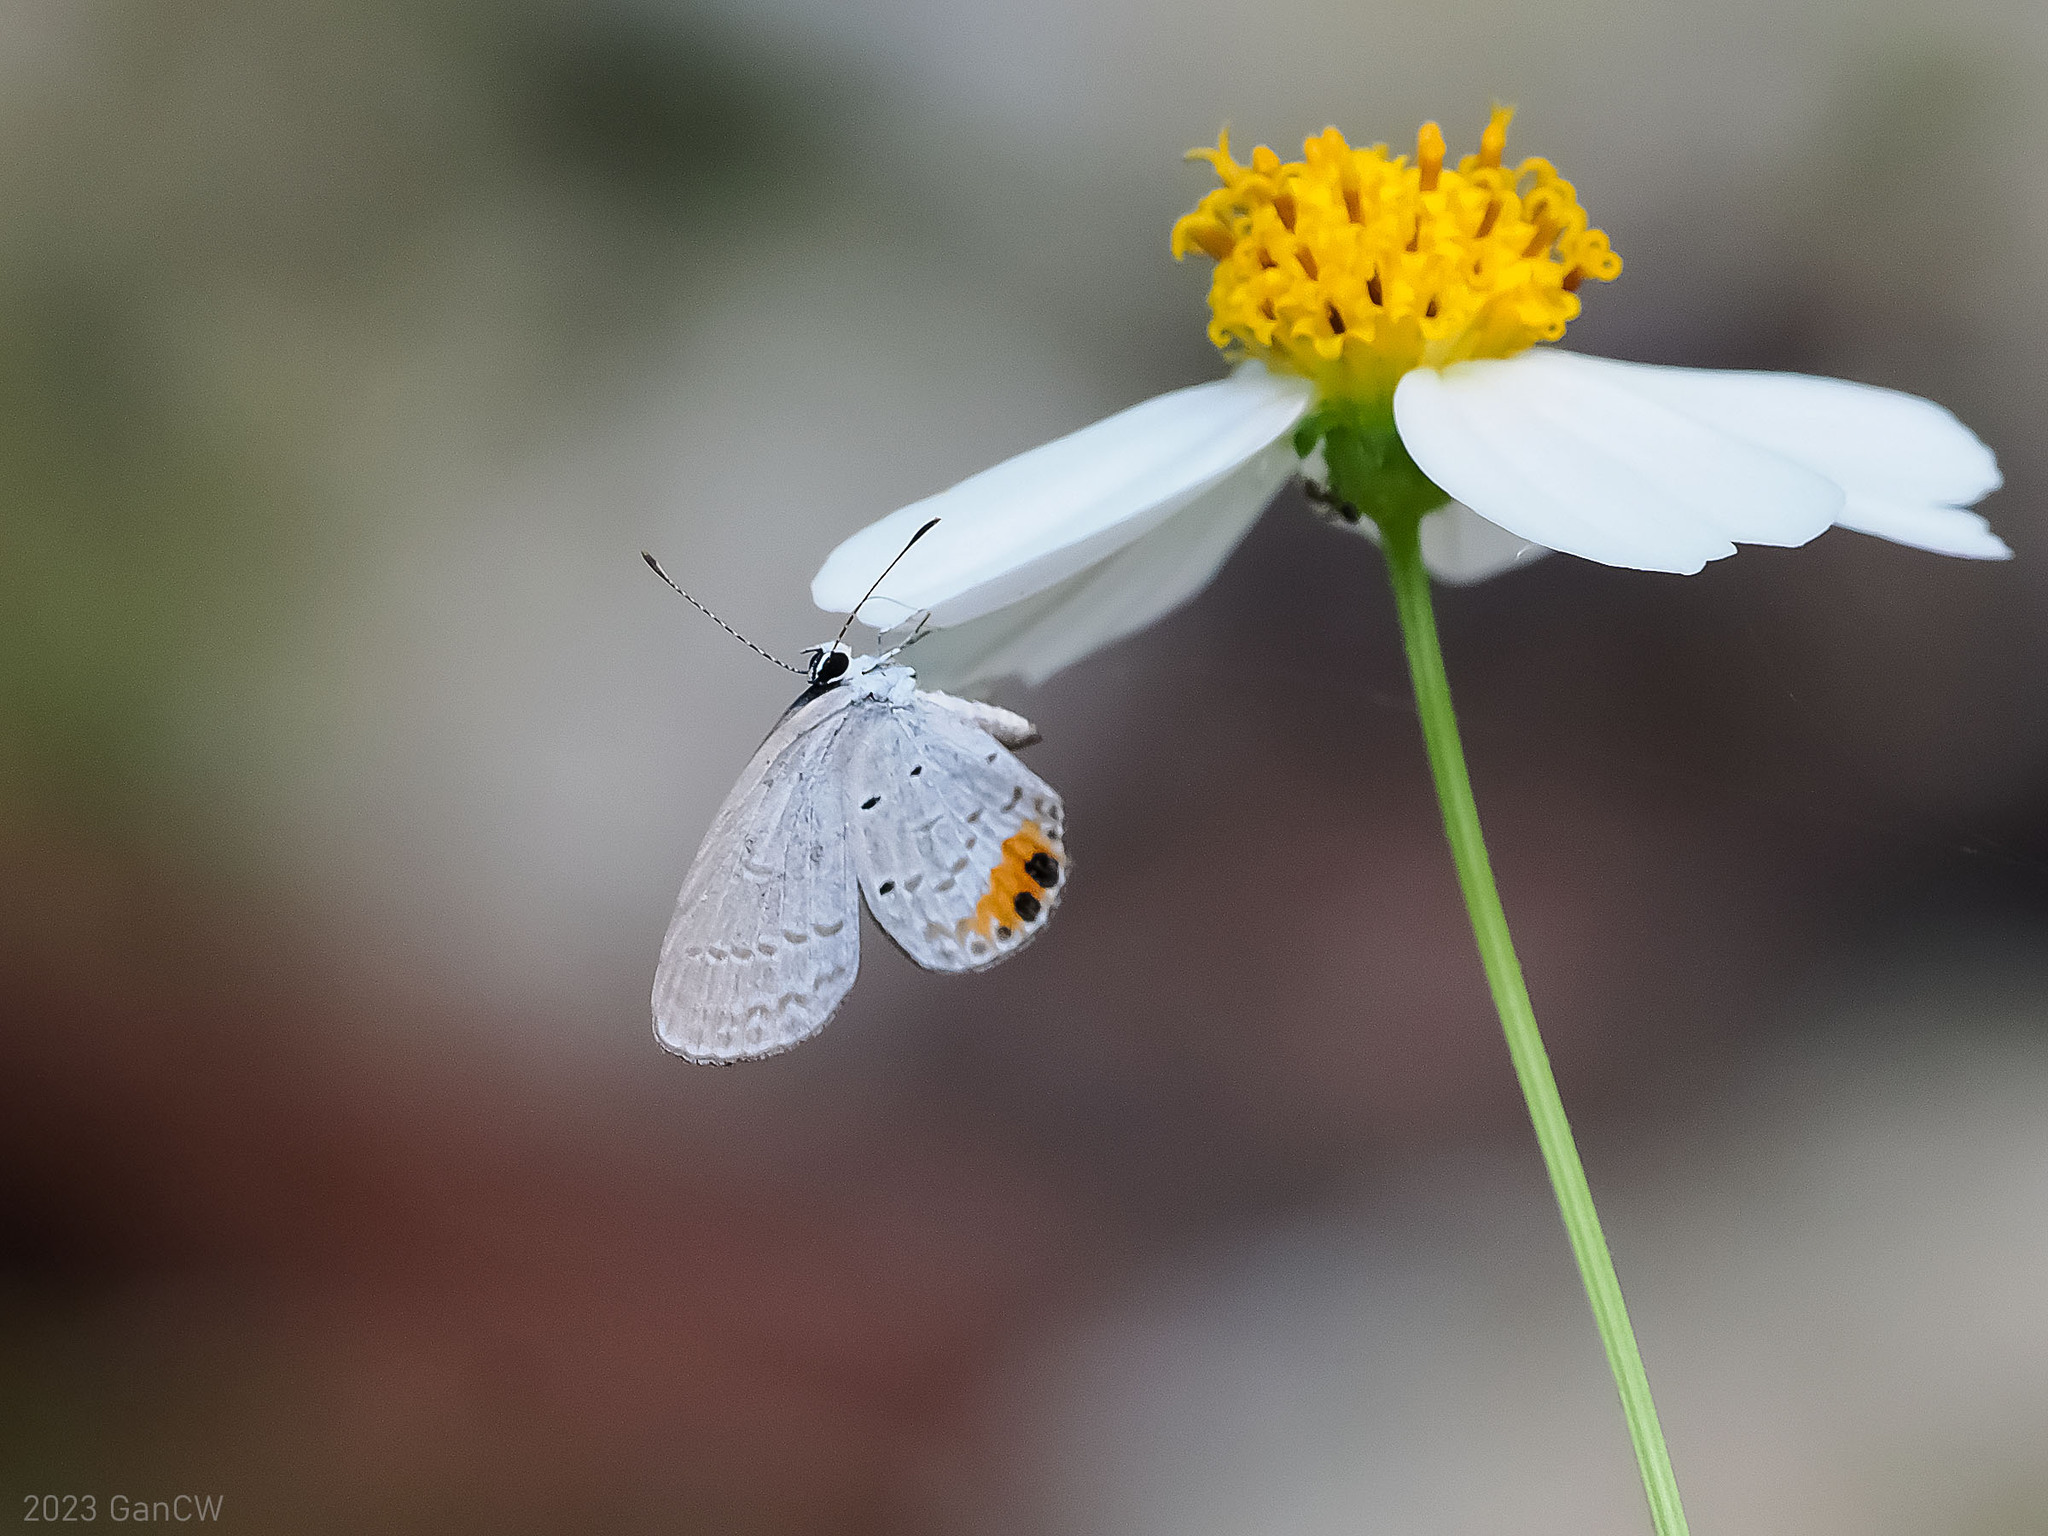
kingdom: Animalia
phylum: Arthropoda
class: Insecta
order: Lepidoptera
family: Lycaenidae
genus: Everes
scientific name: Everes lacturnus
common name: Orange-tipped pea-blue
